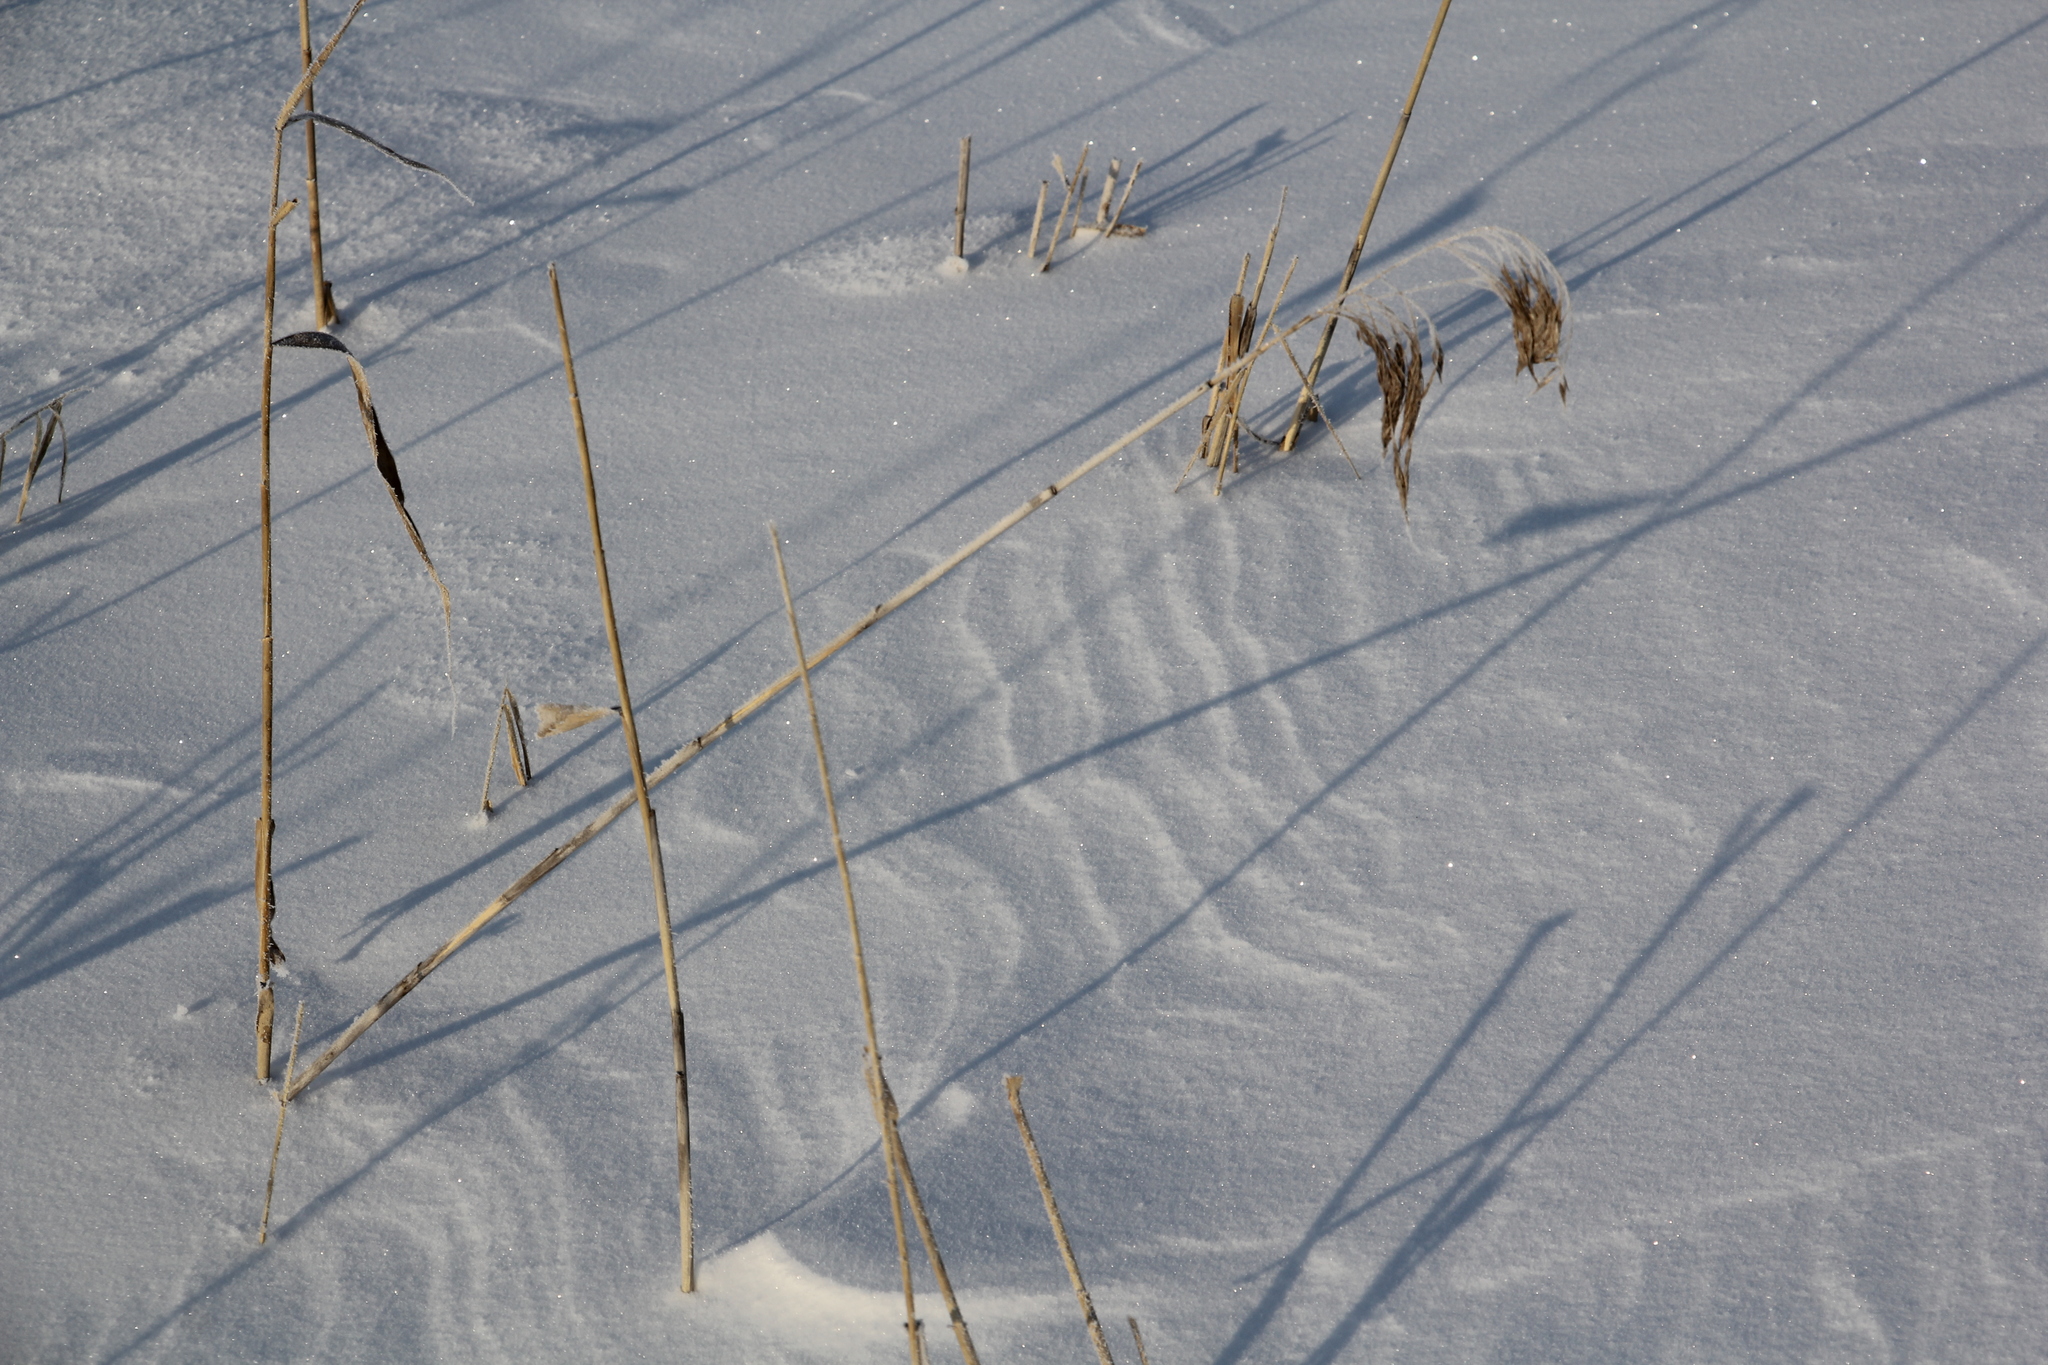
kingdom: Plantae
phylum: Tracheophyta
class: Liliopsida
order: Poales
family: Poaceae
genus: Phragmites
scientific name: Phragmites australis
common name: Common reed
